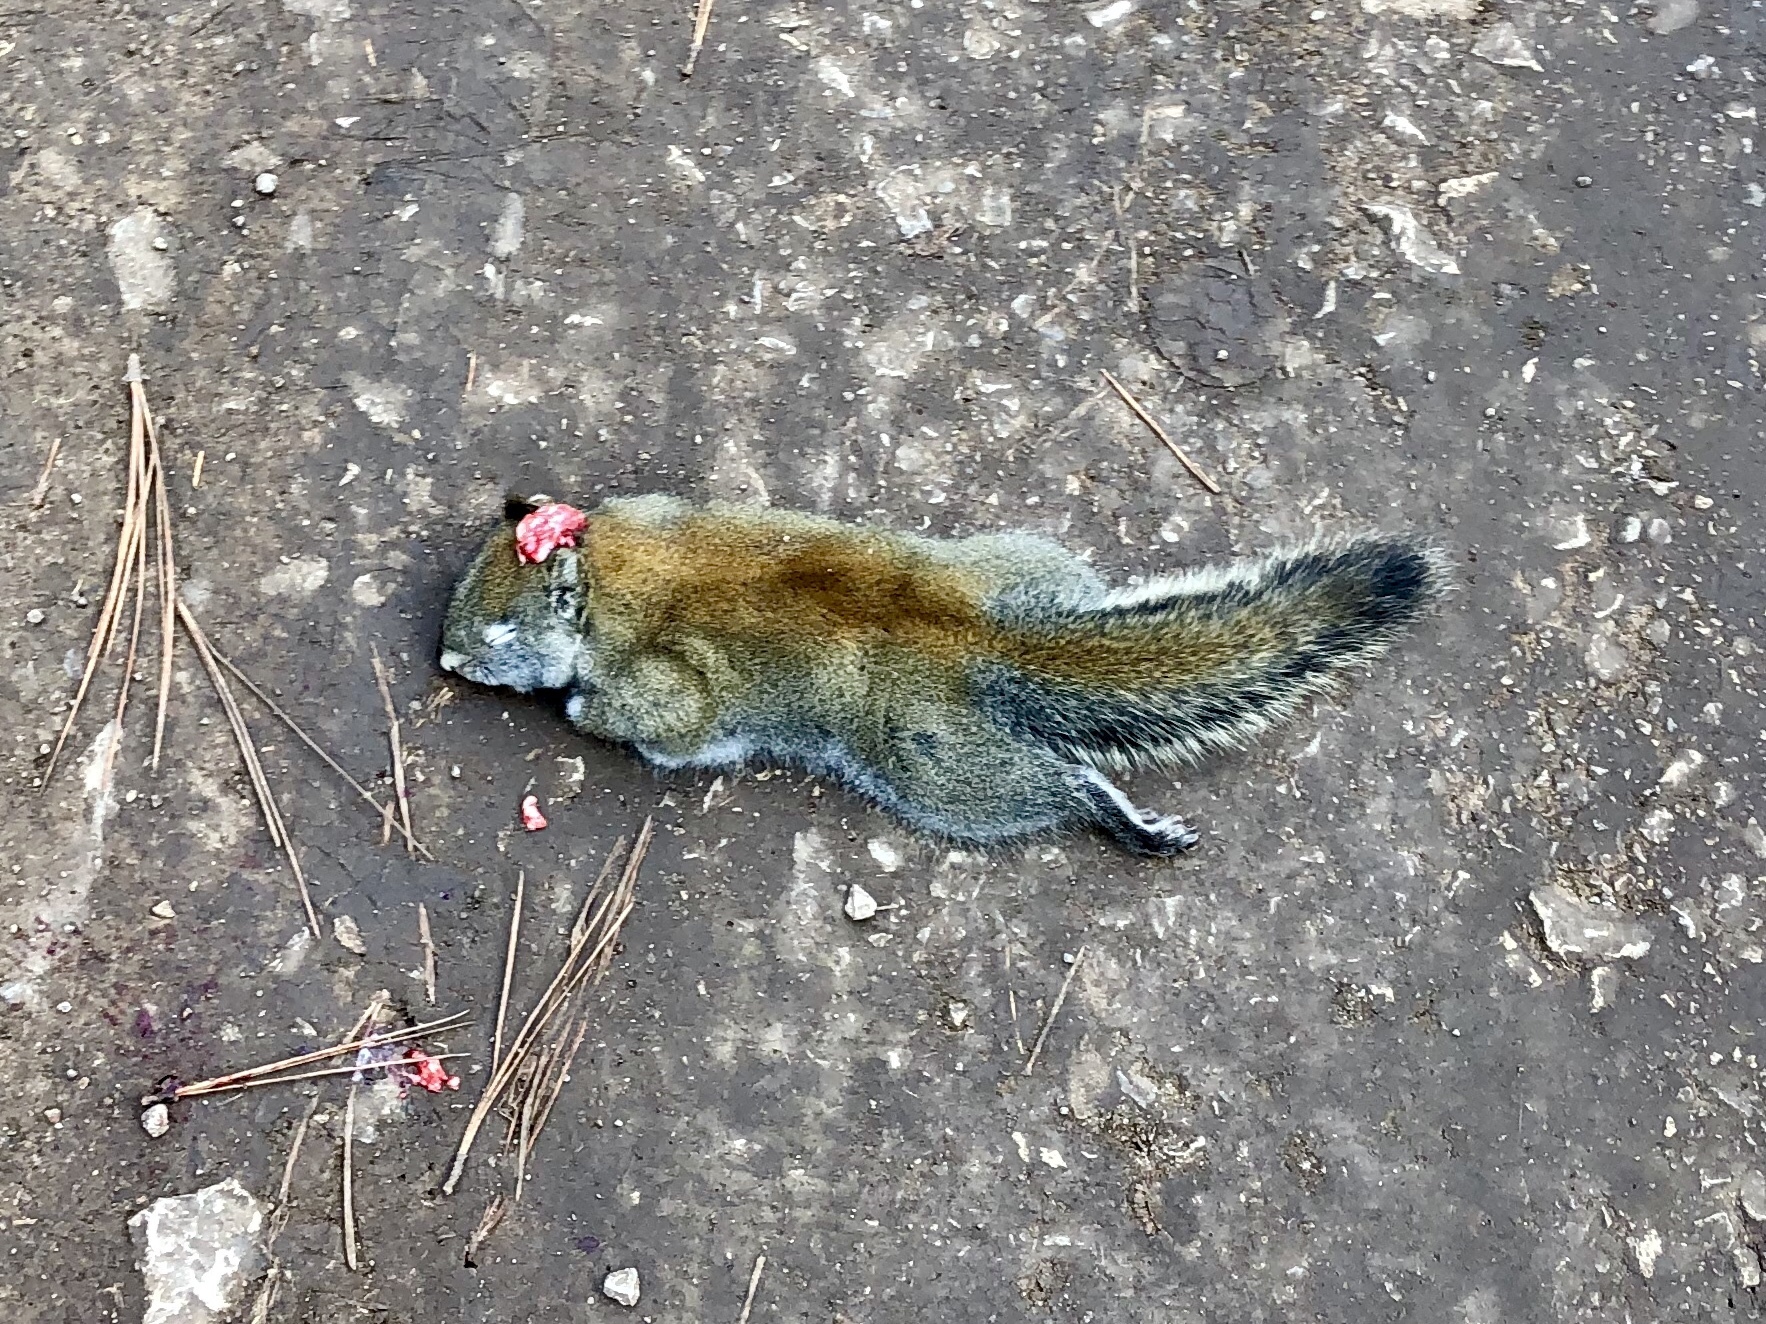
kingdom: Animalia
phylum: Chordata
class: Mammalia
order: Rodentia
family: Sciuridae
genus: Tamiasciurus
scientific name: Tamiasciurus hudsonicus
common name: Red squirrel
